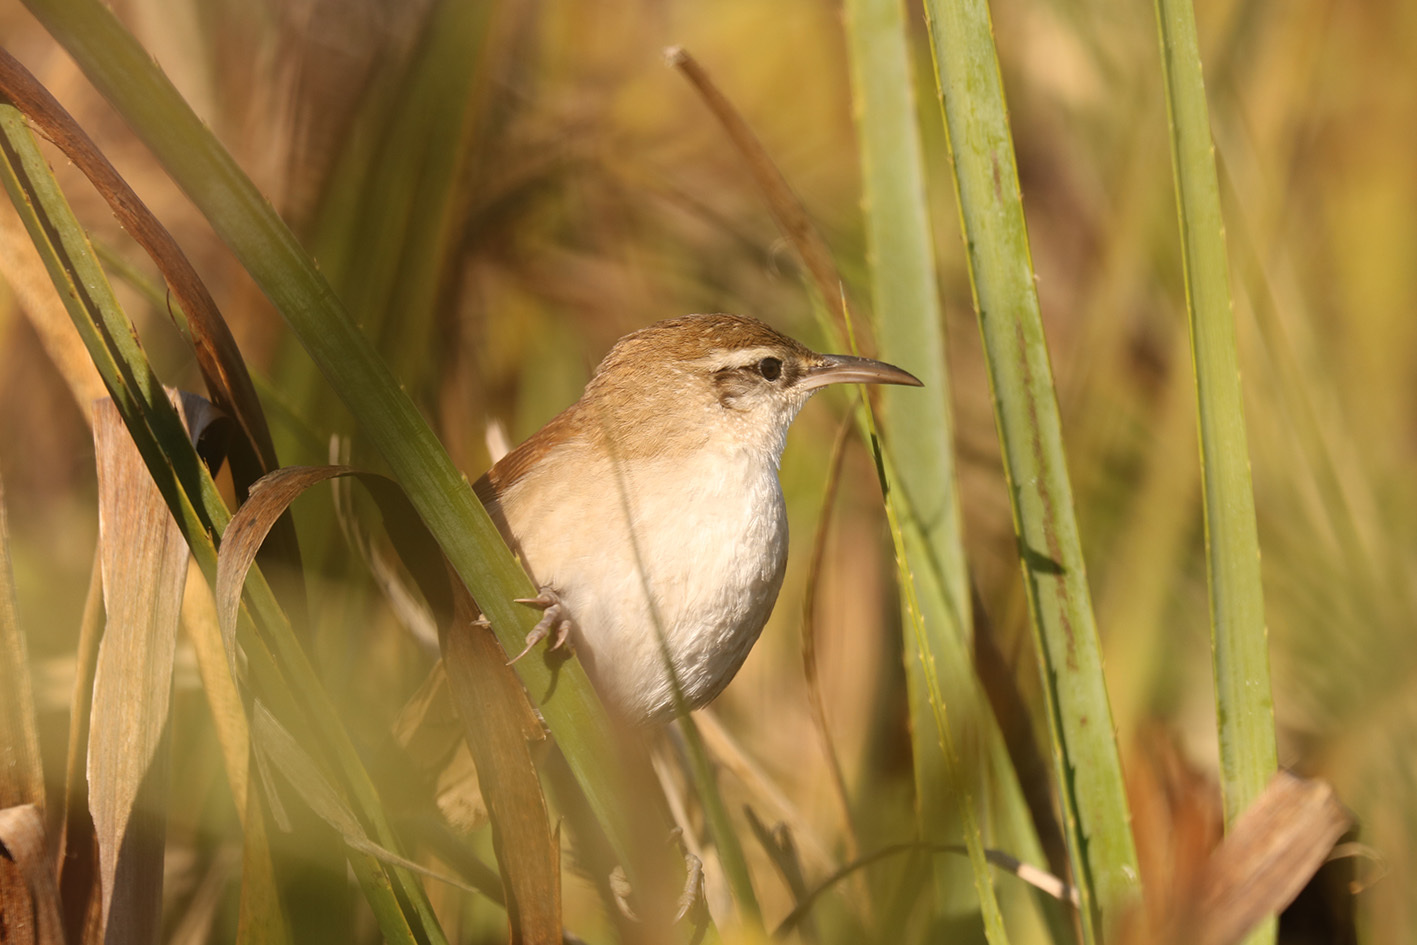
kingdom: Animalia
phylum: Chordata
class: Aves
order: Passeriformes
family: Furnariidae
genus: Limnornis
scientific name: Limnornis curvirostris
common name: Curve-billed reedhaunter
